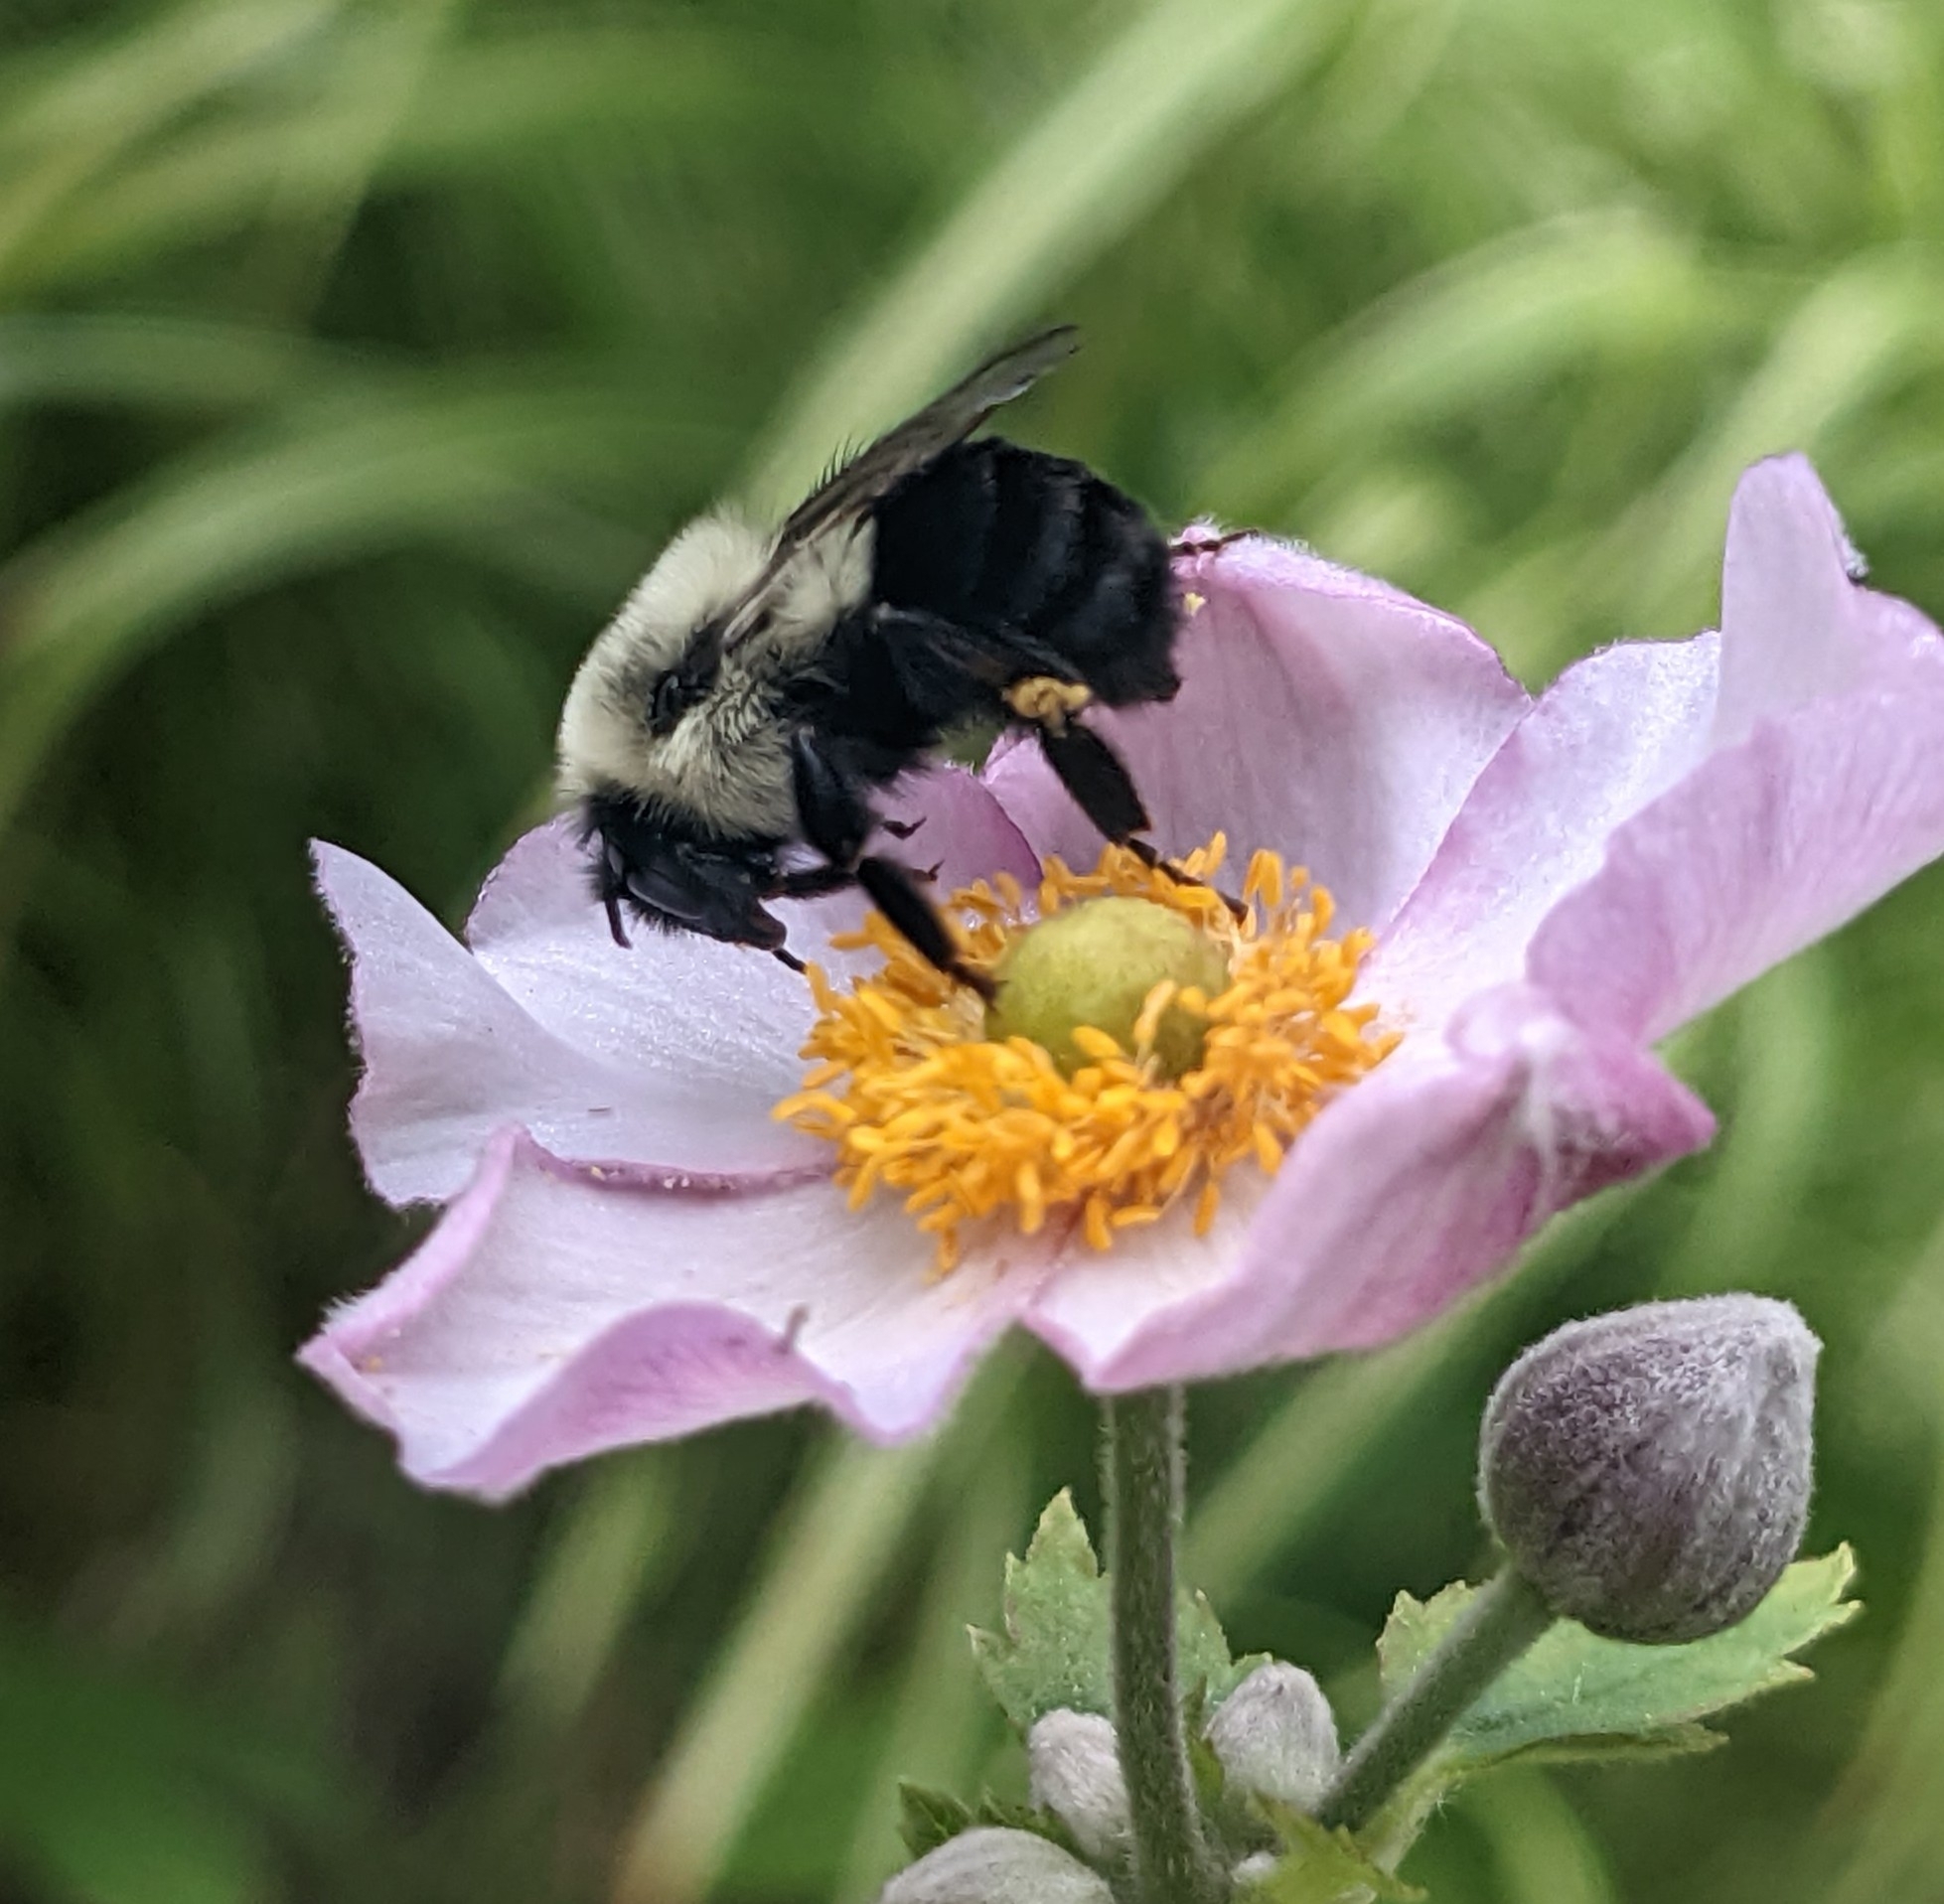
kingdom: Animalia
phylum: Arthropoda
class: Insecta
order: Hymenoptera
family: Apidae
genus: Bombus
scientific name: Bombus impatiens
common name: Common eastern bumble bee
